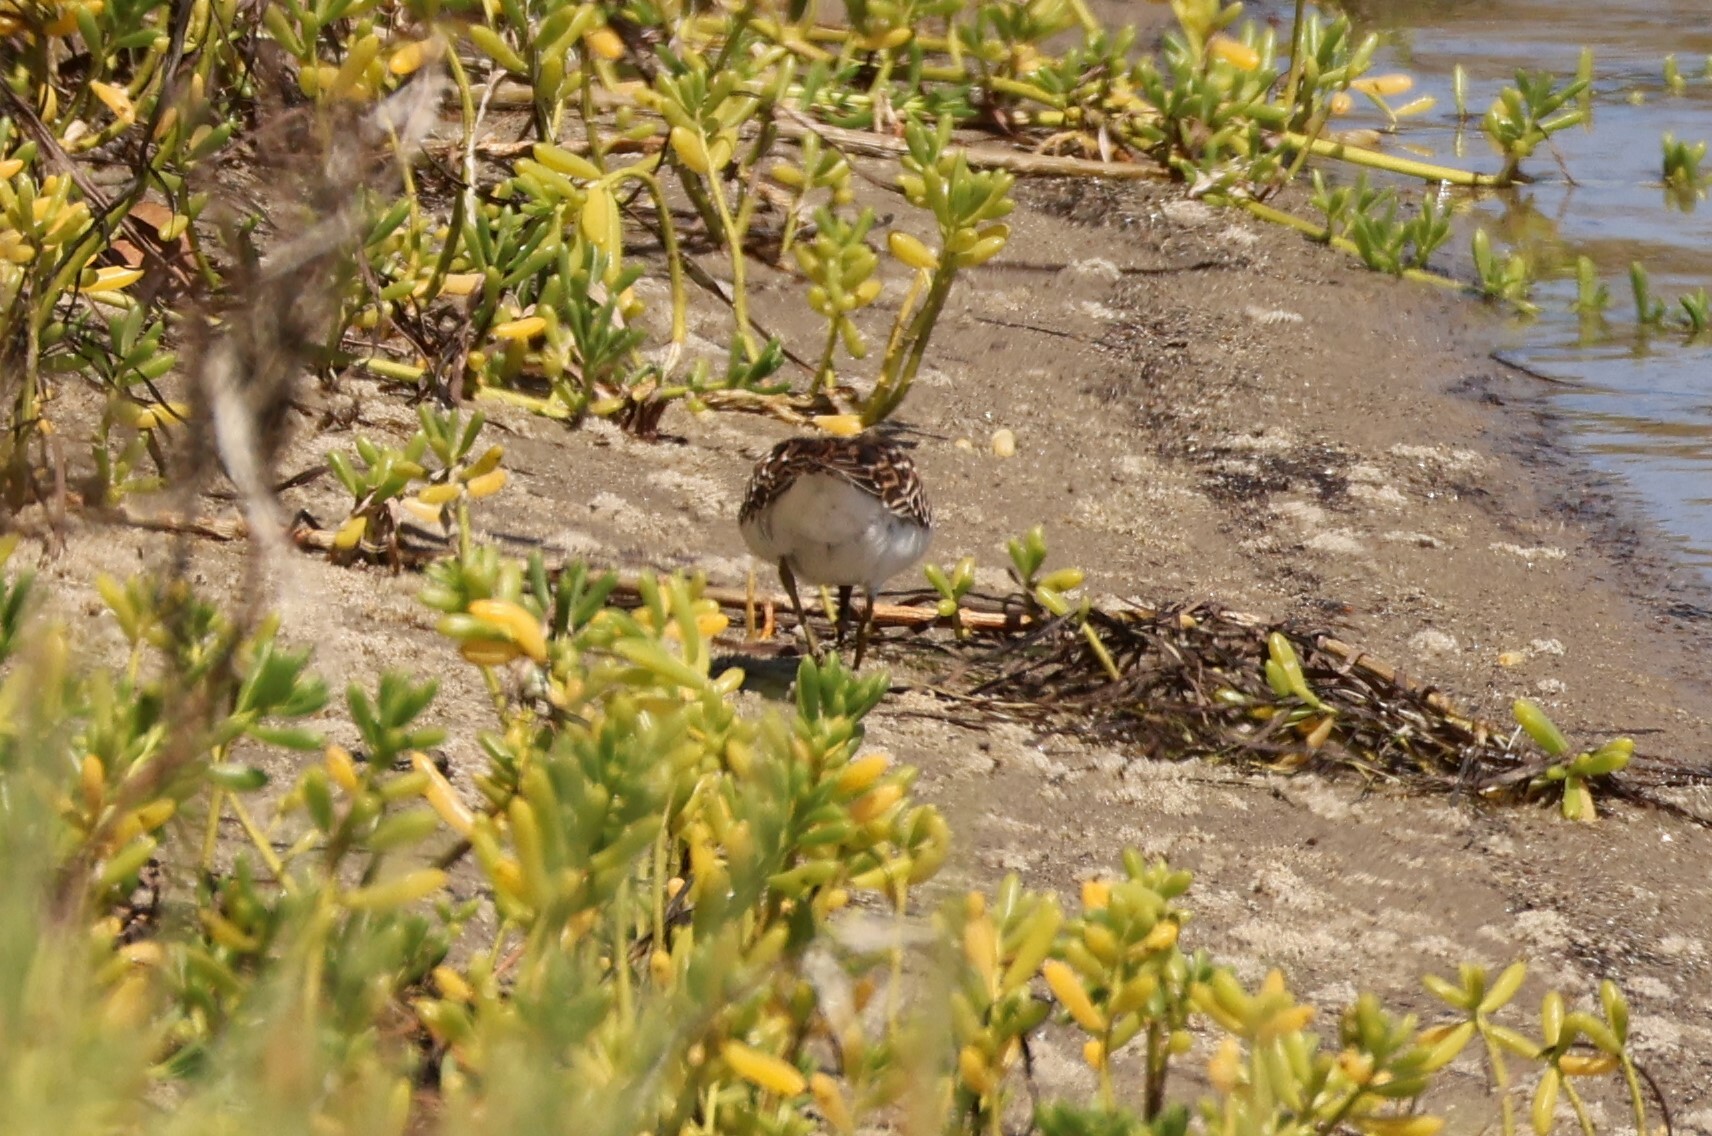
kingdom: Animalia
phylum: Chordata
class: Aves
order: Charadriiformes
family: Scolopacidae
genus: Calidris
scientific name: Calidris minutilla
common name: Least sandpiper
